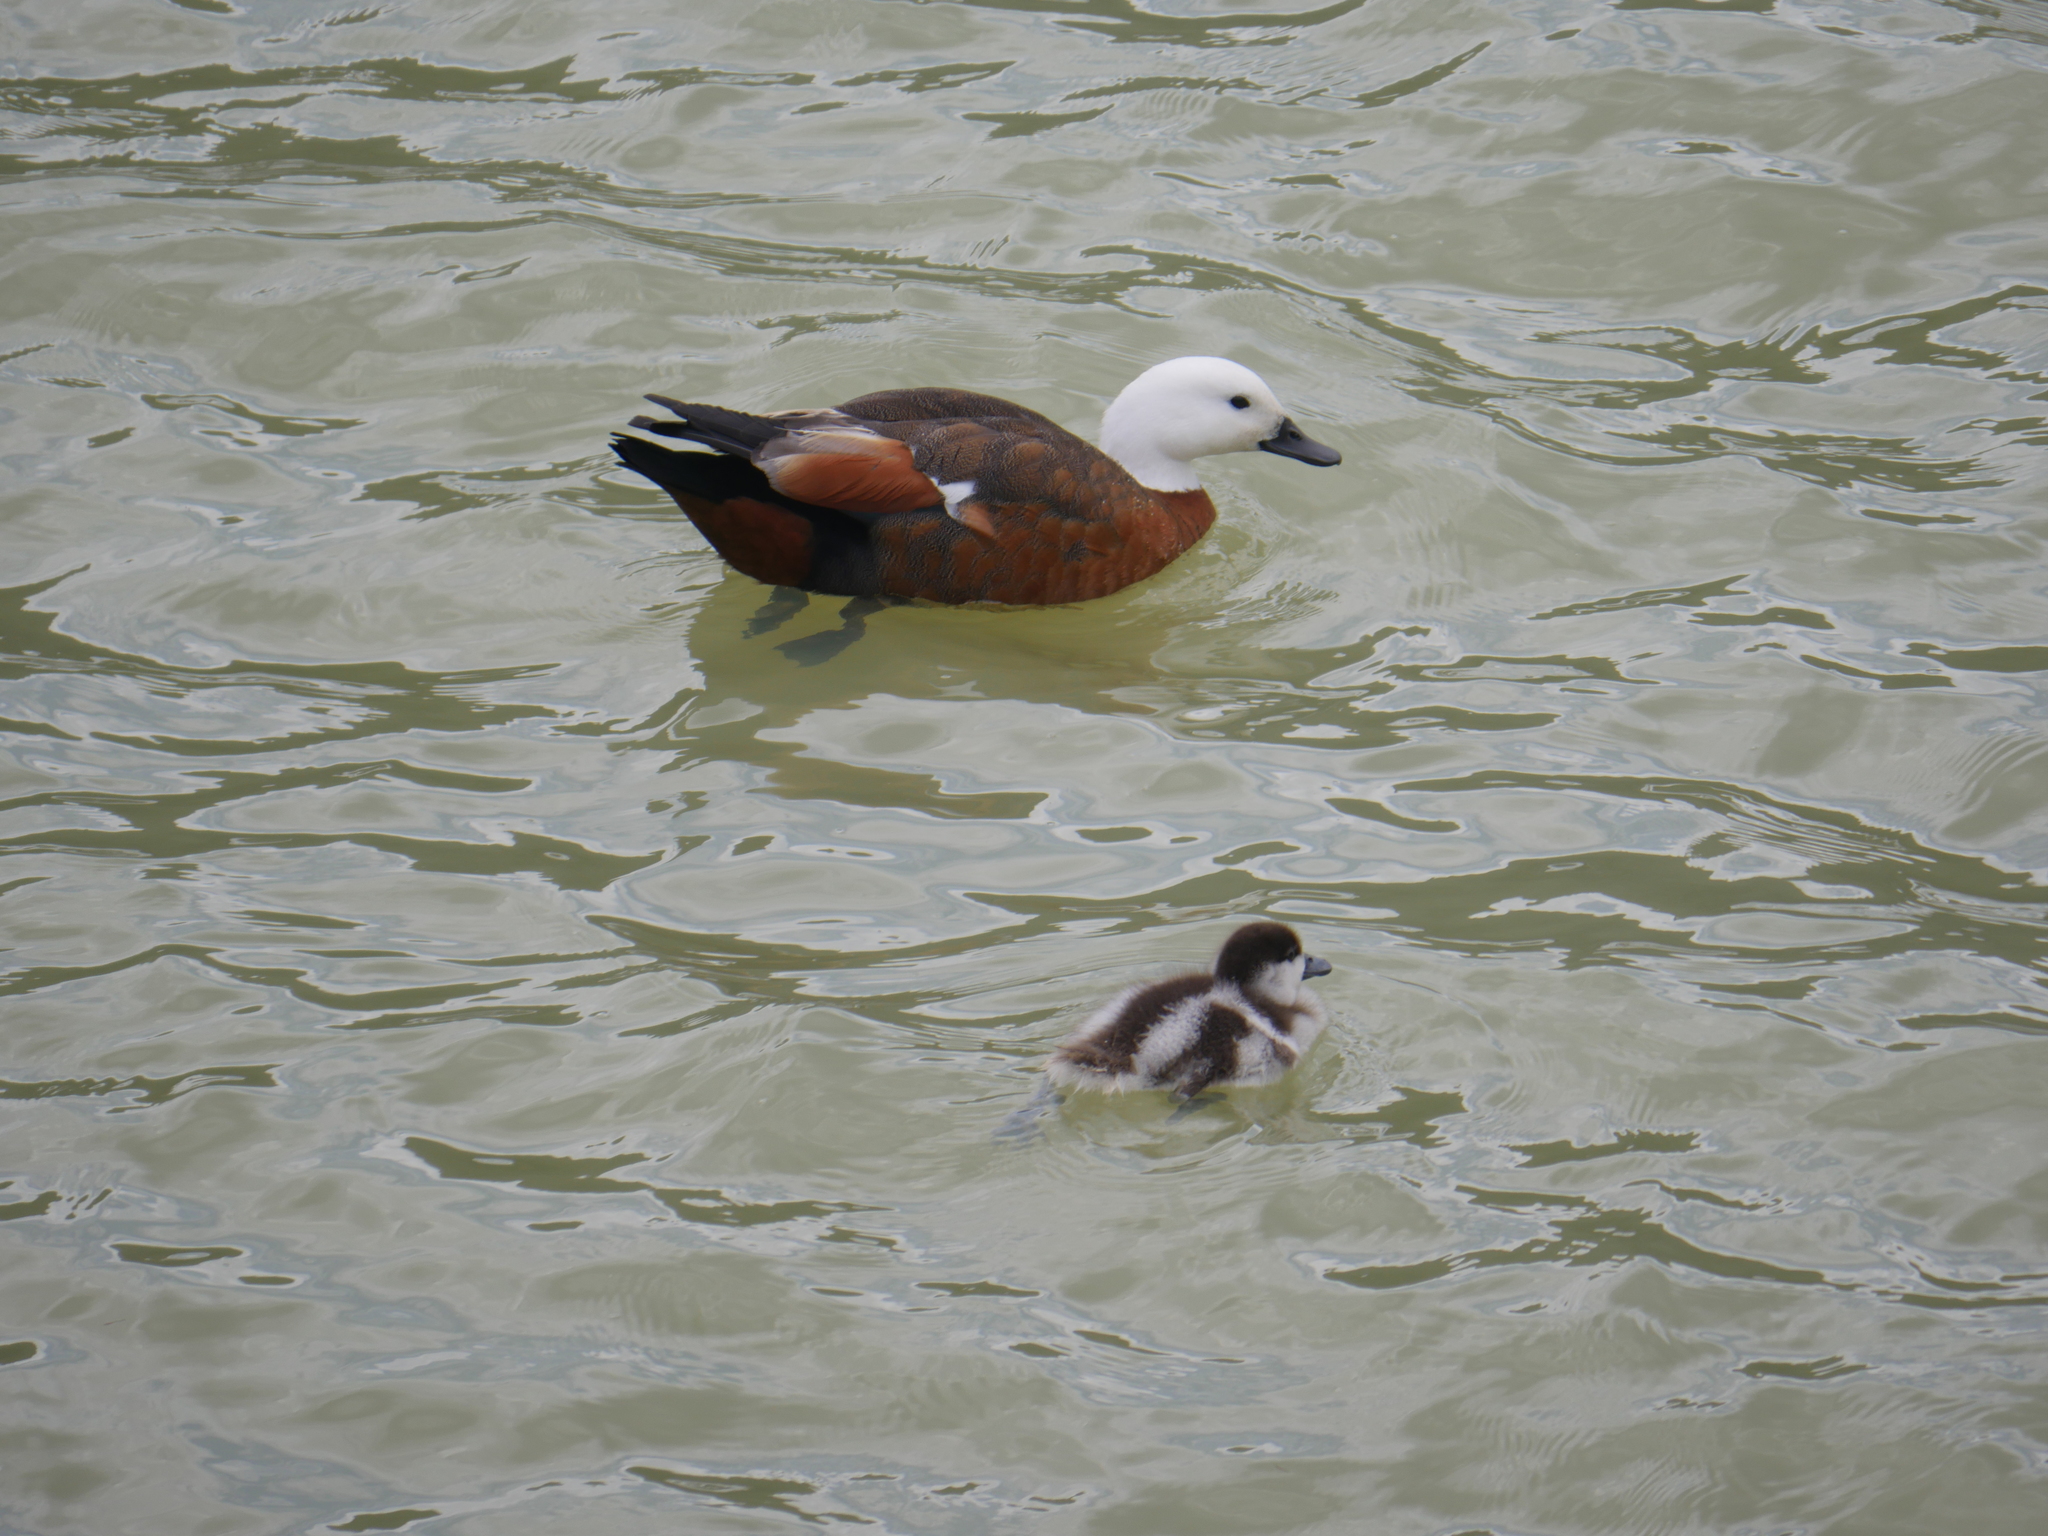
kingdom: Animalia
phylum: Chordata
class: Aves
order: Anseriformes
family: Anatidae
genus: Tadorna
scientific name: Tadorna variegata
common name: Paradise shelduck
